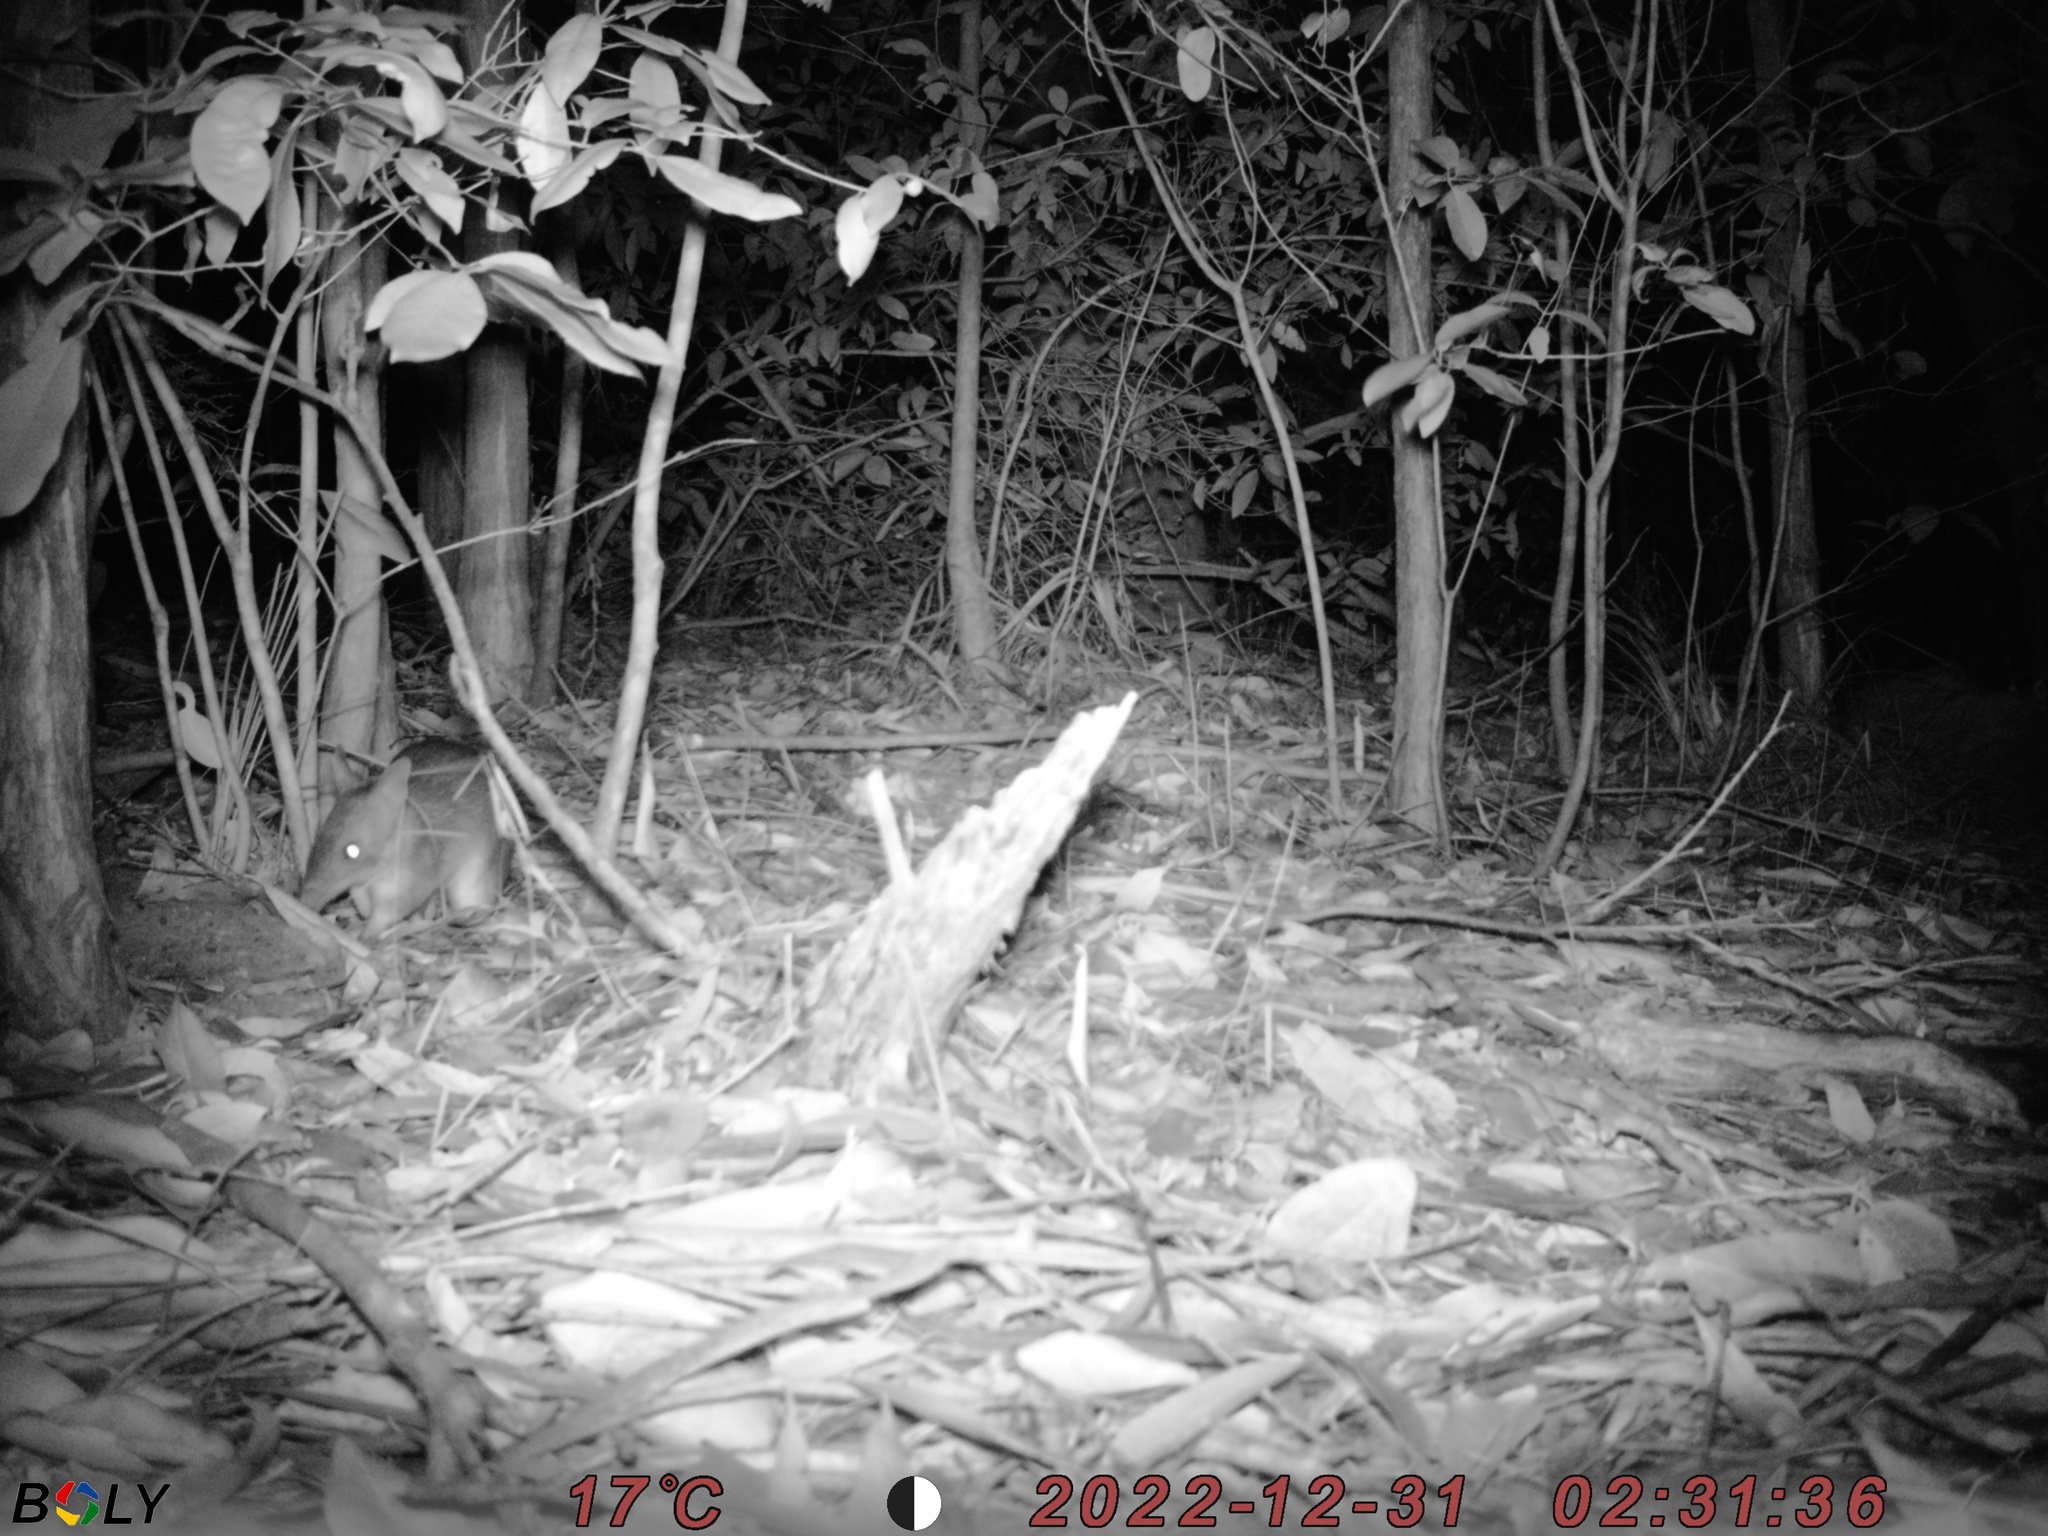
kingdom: Animalia
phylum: Chordata
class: Mammalia
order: Peramelemorphia
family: Peramelidae
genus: Perameles
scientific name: Perameles nasuta
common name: Long-nosed bandicoot
